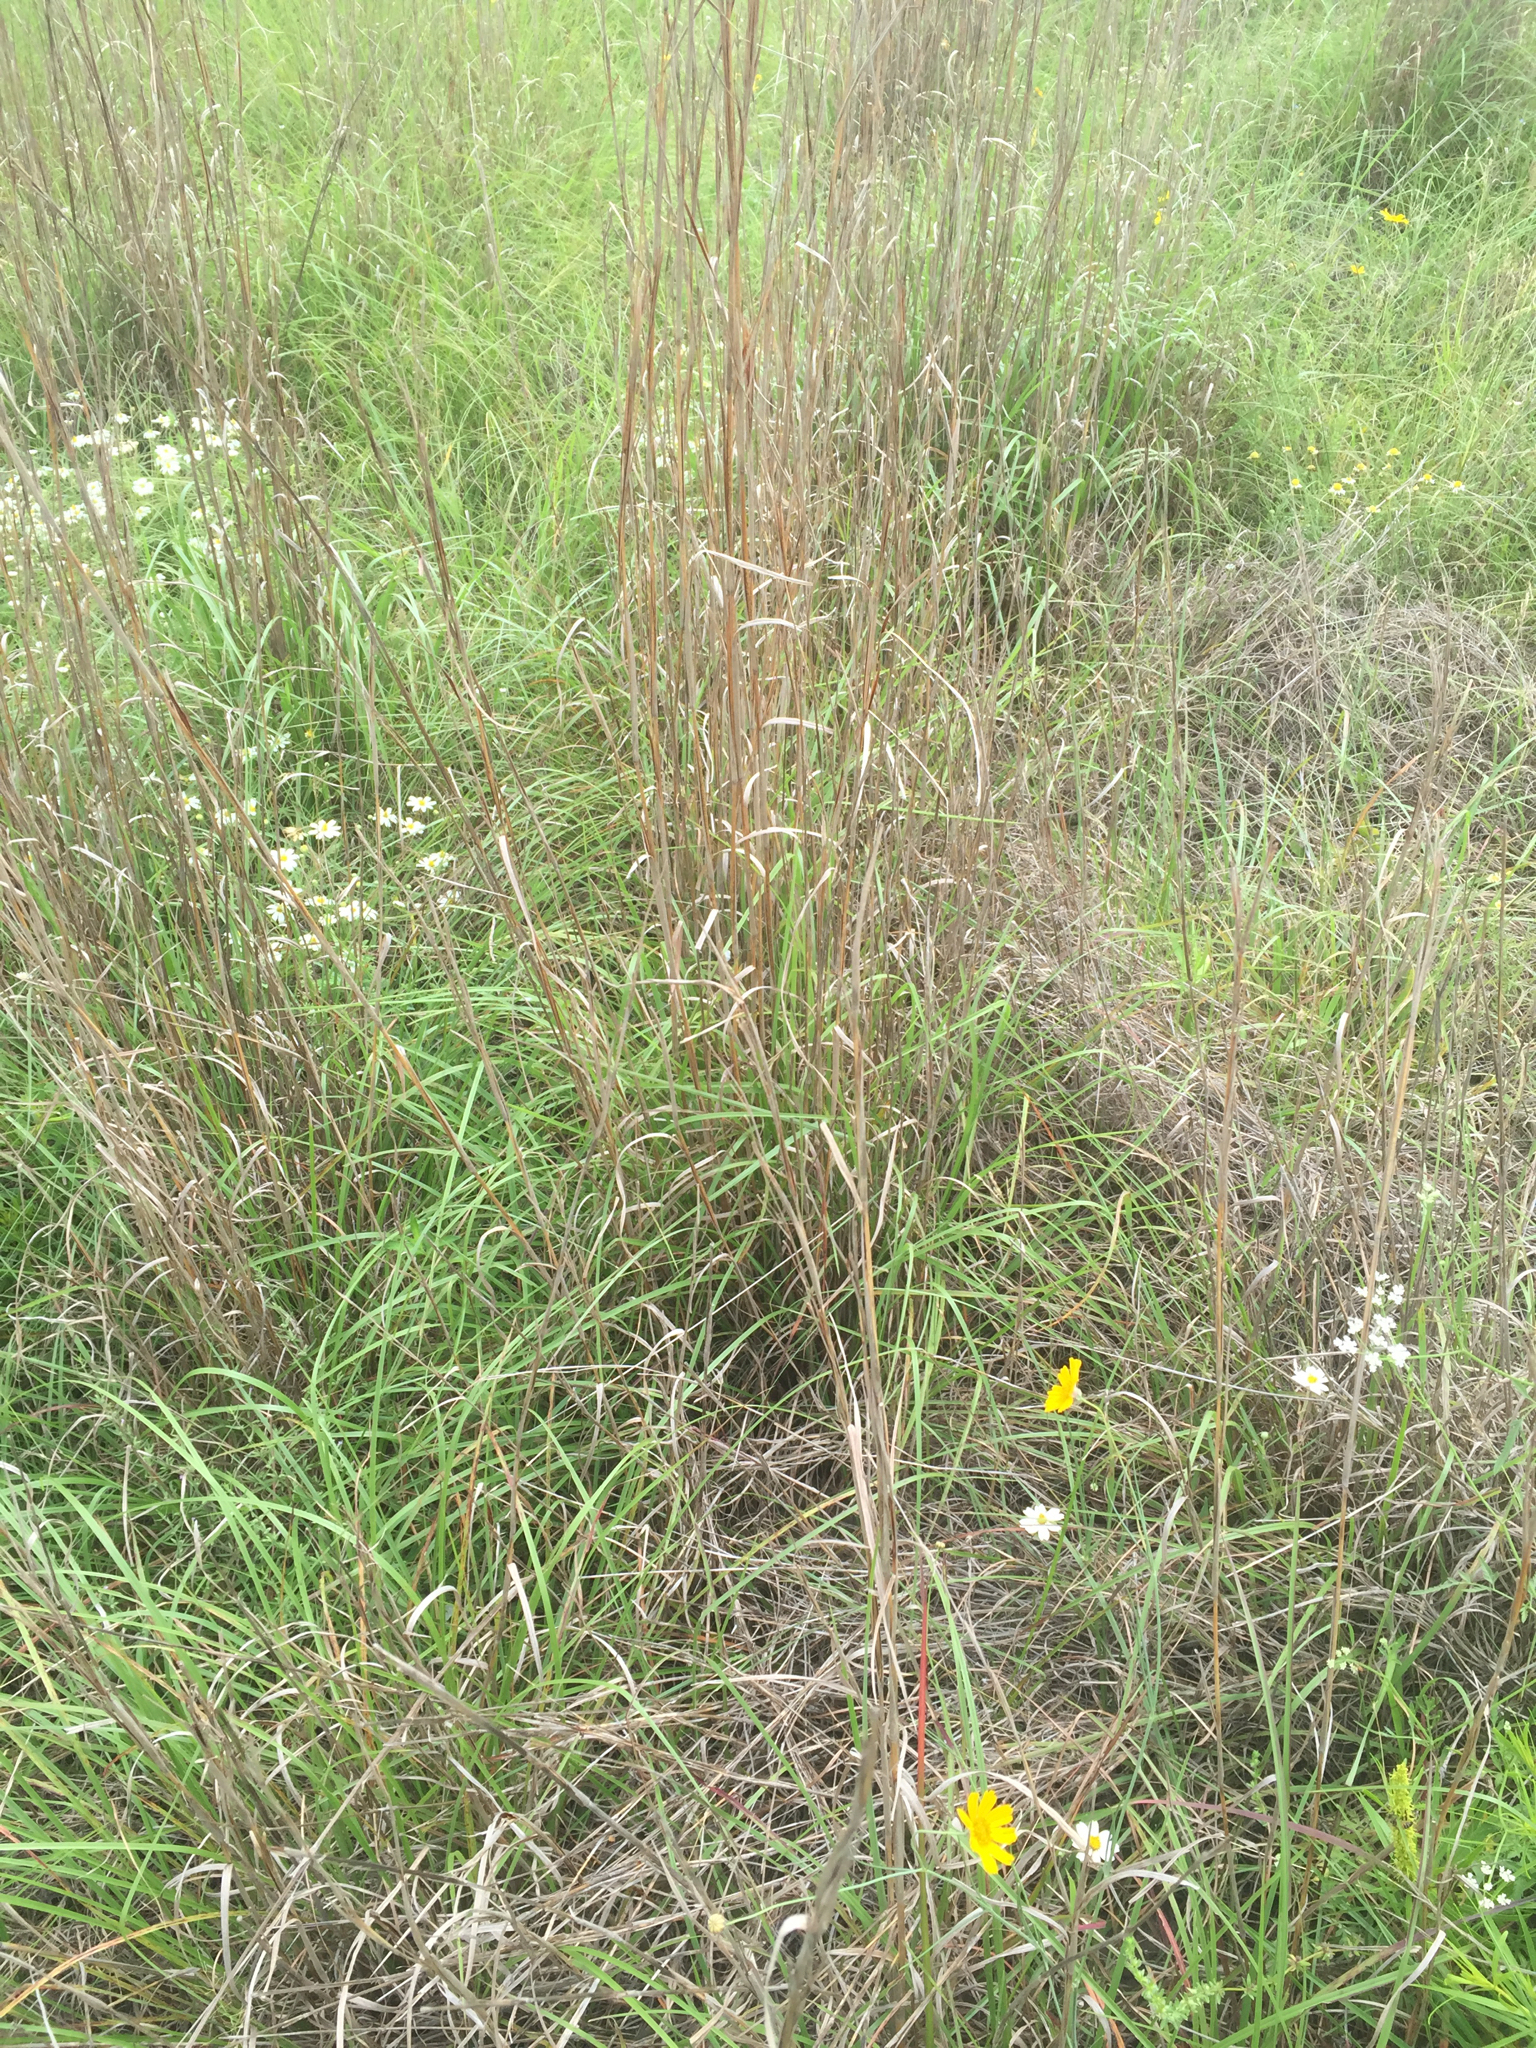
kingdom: Plantae
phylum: Tracheophyta
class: Liliopsida
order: Poales
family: Poaceae
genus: Schizachyrium
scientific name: Schizachyrium scoparium
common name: Little bluestem
